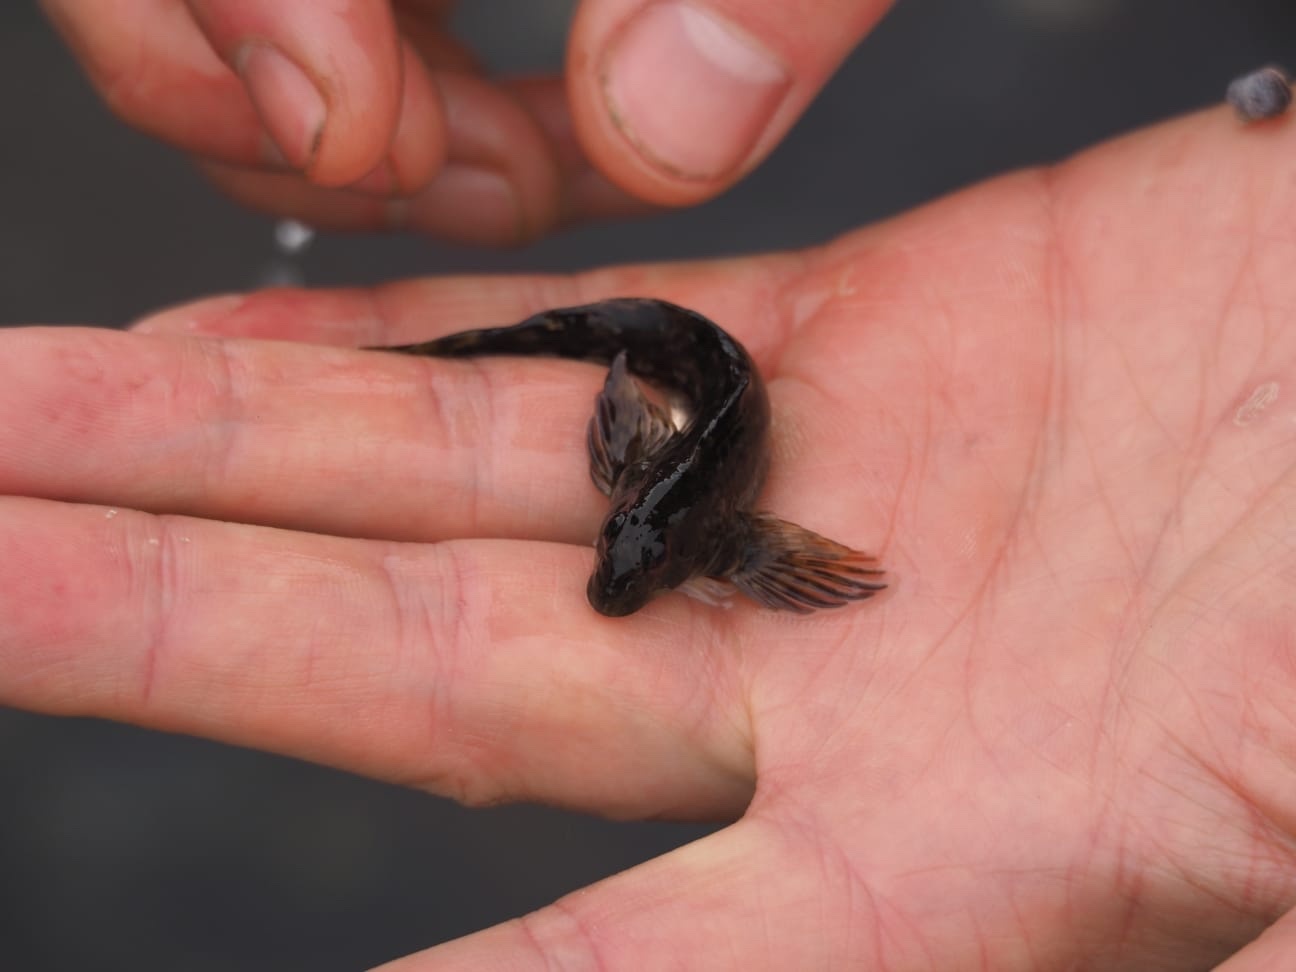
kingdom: Animalia
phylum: Chordata
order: Perciformes
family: Blenniidae
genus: Lipophrys
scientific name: Lipophrys pholis
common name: Shanny
